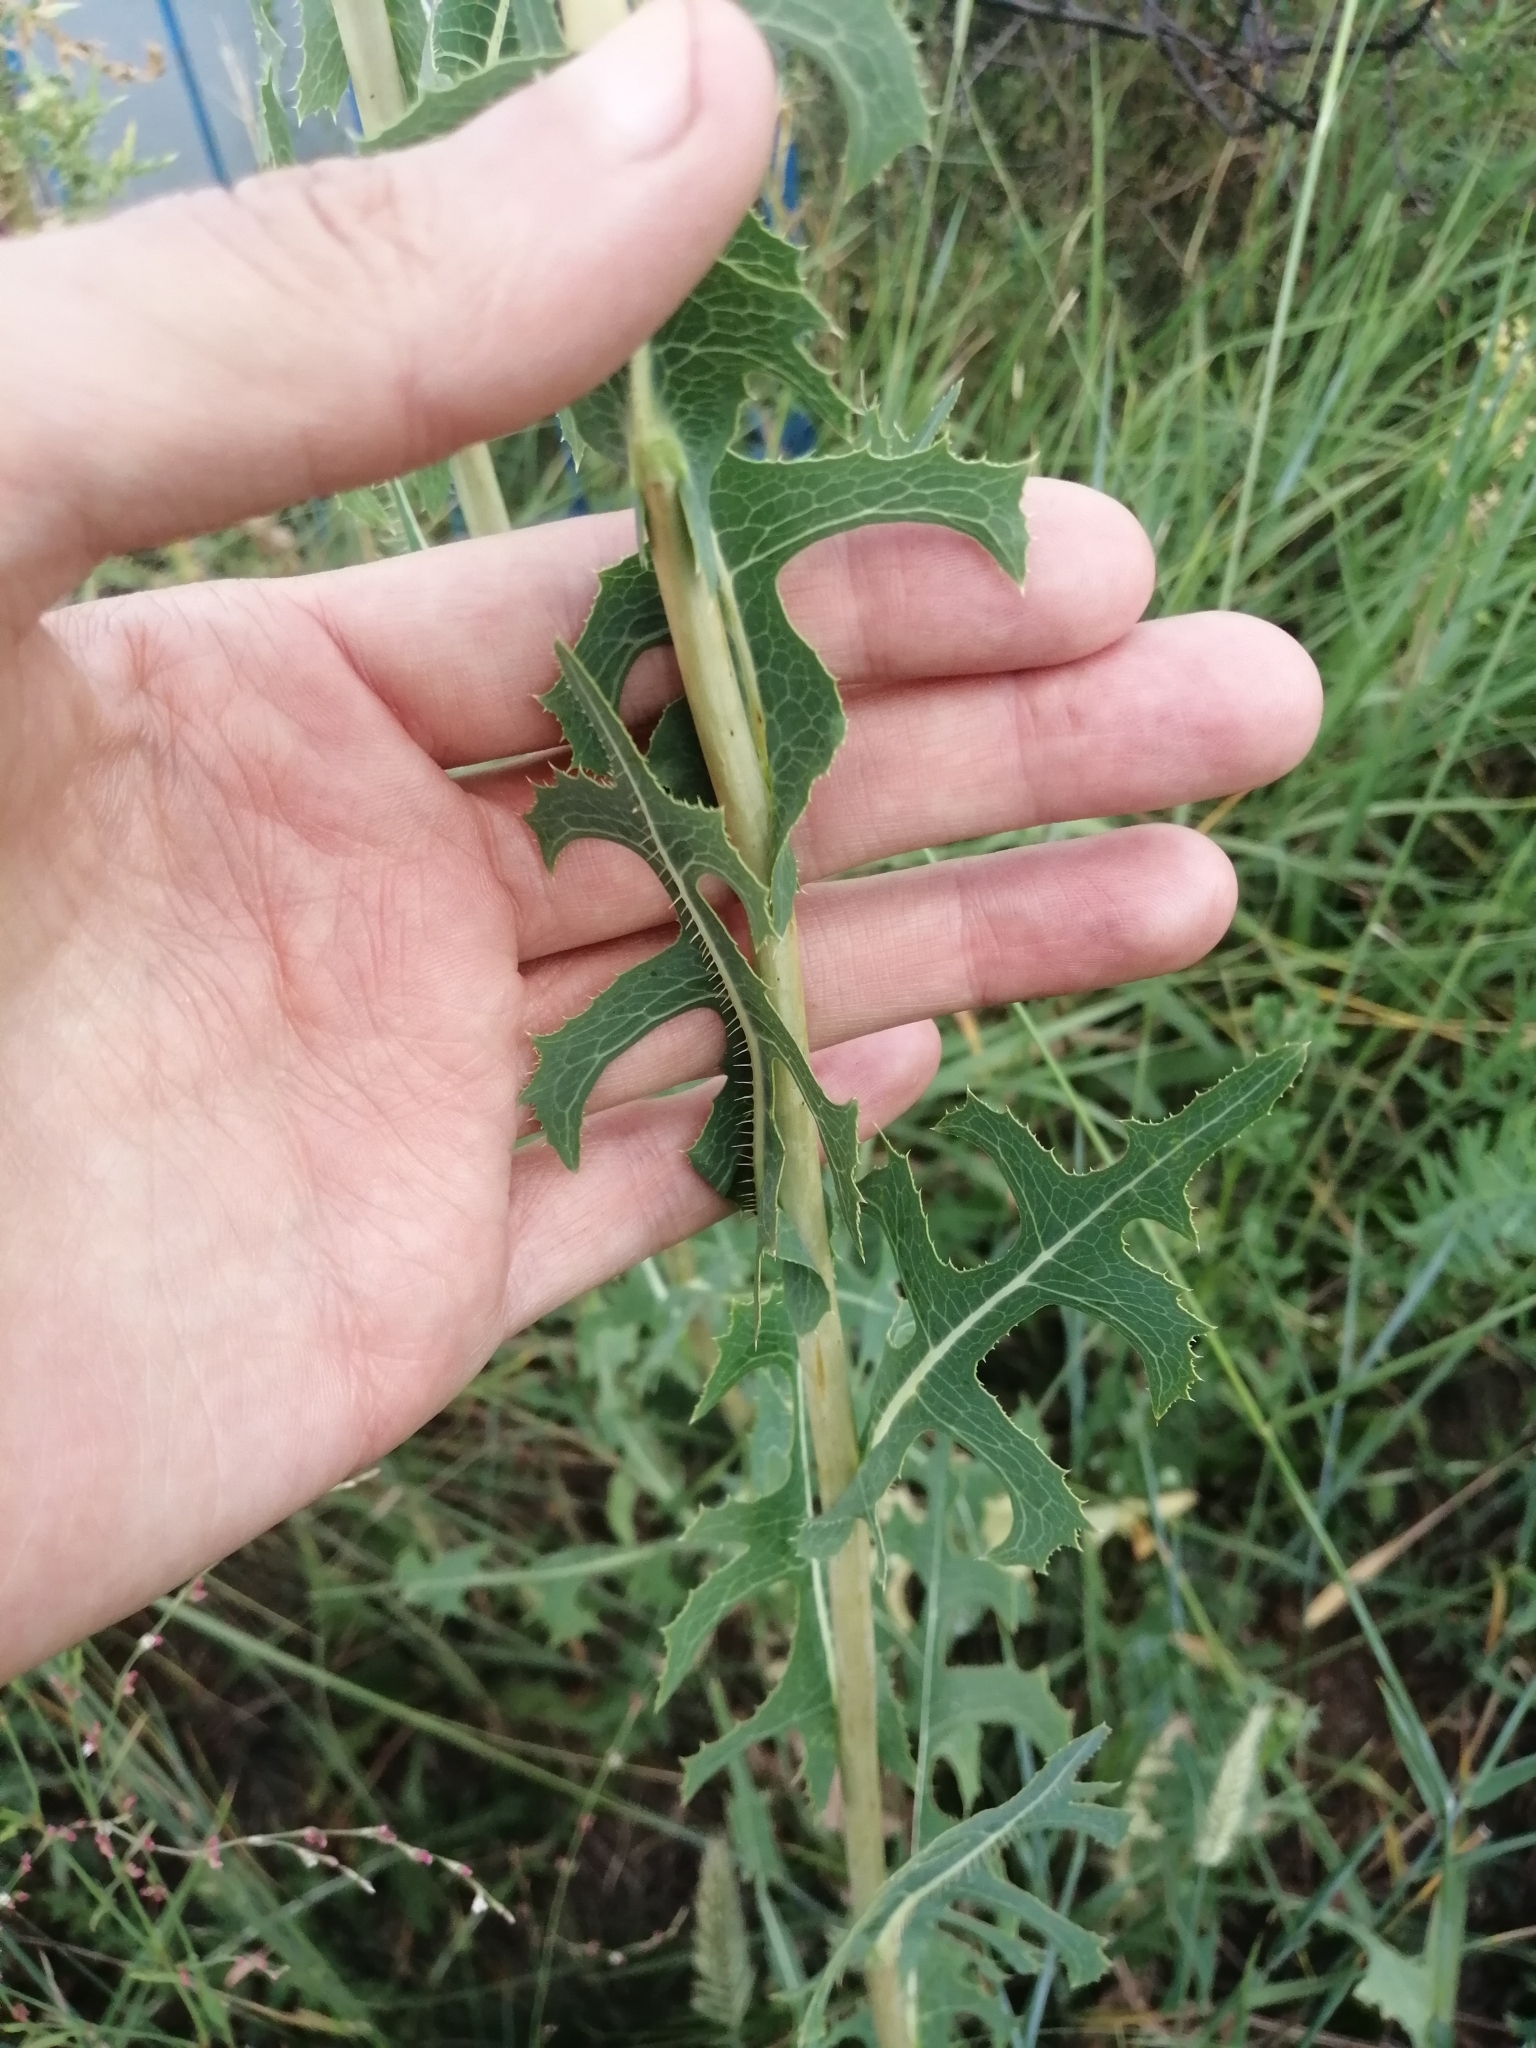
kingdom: Plantae
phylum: Tracheophyta
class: Magnoliopsida
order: Asterales
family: Asteraceae
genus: Lactuca
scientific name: Lactuca serriola
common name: Prickly lettuce
